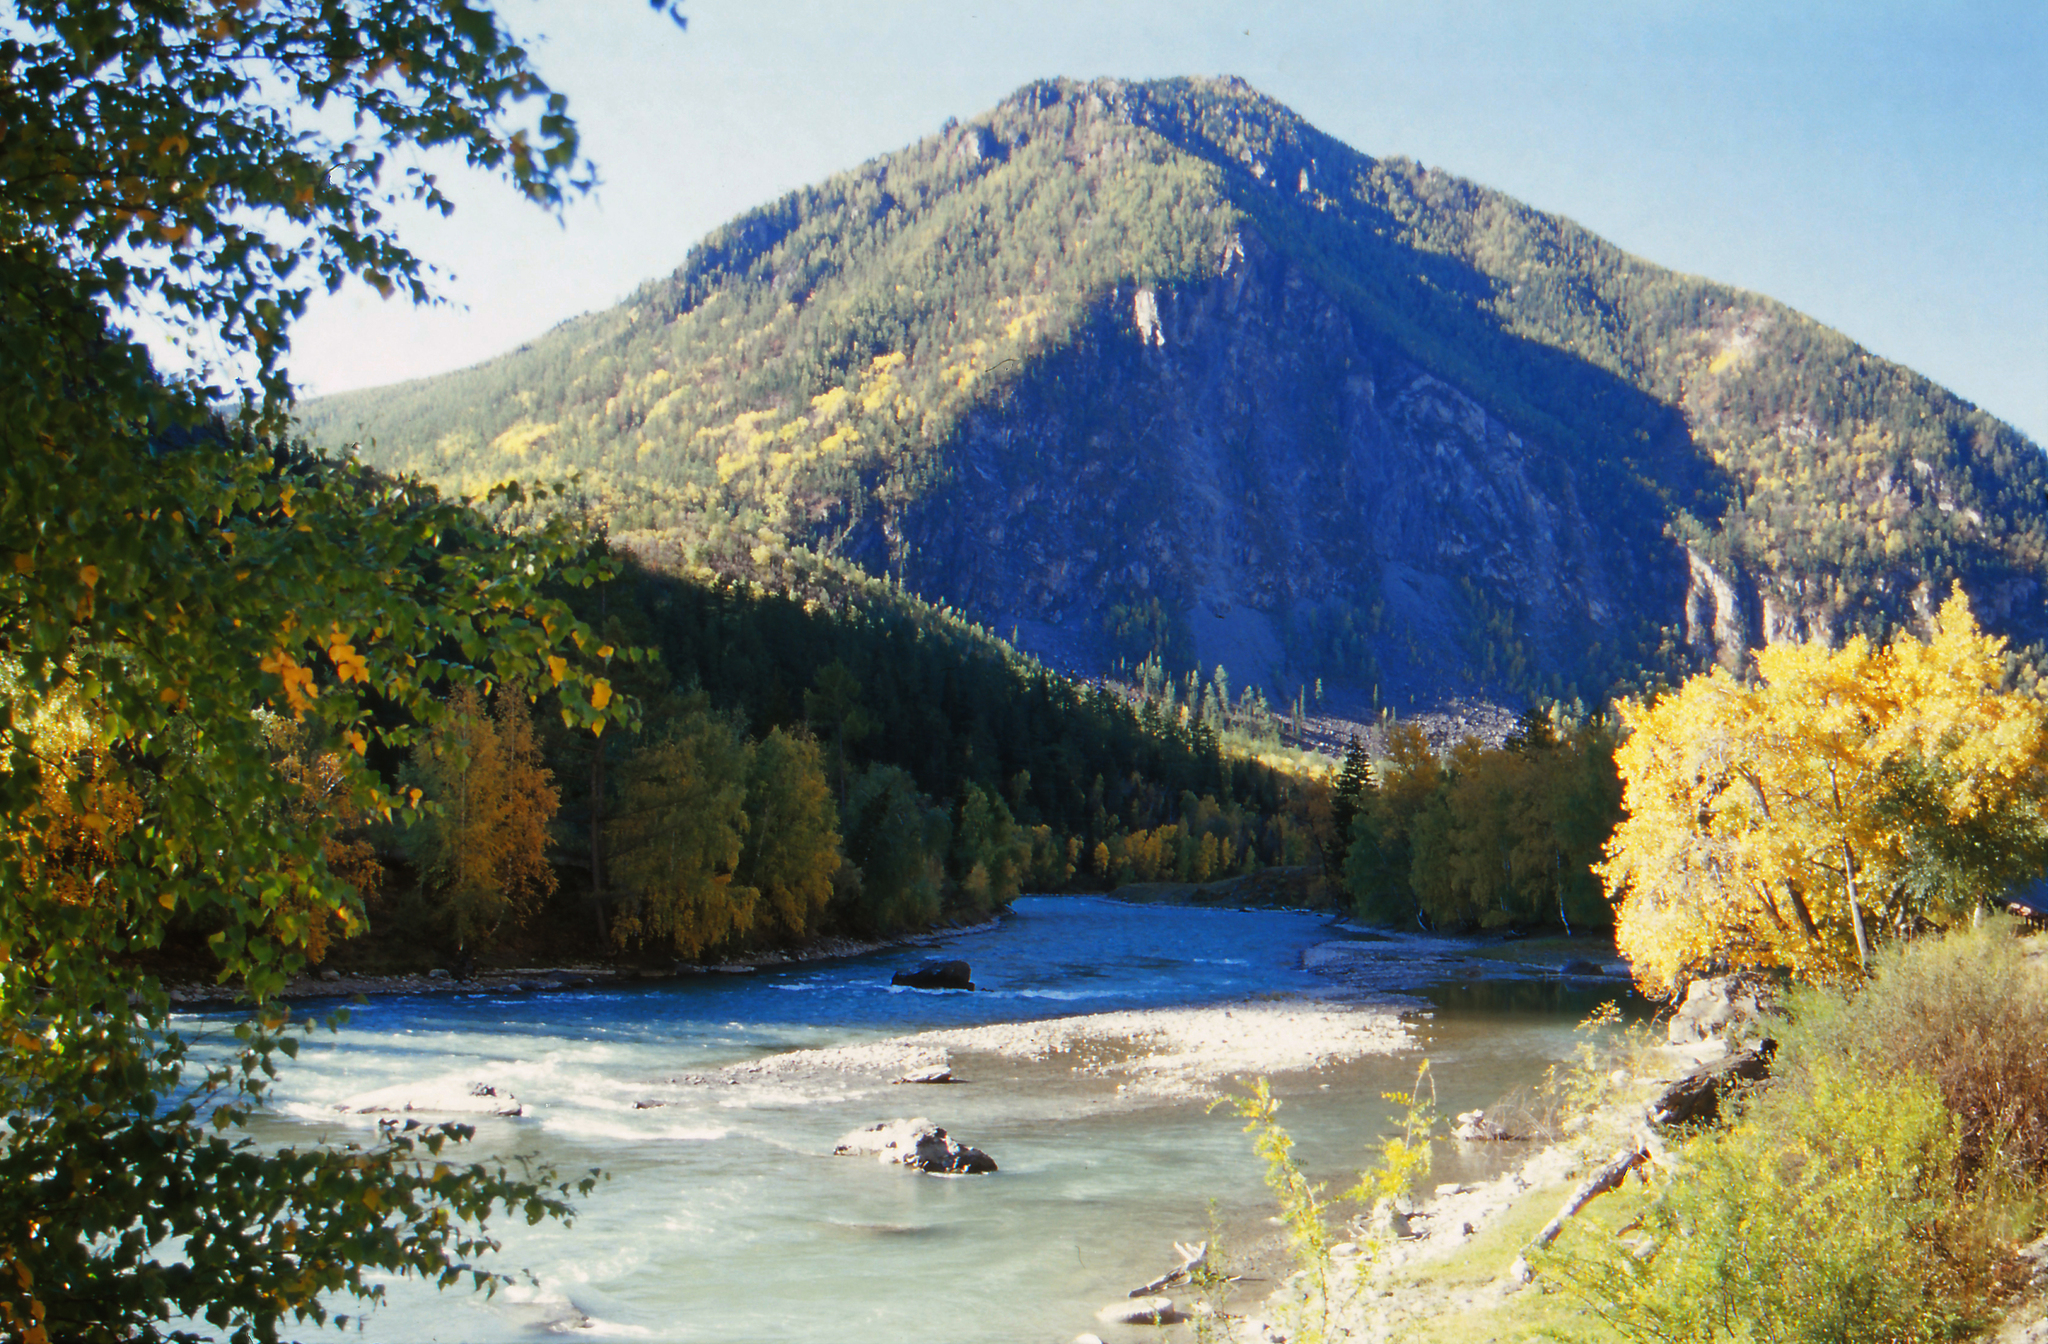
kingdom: Plantae
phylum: Tracheophyta
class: Magnoliopsida
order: Malpighiales
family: Salicaceae
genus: Populus
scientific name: Populus laurifolia
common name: Laurel-leaf poplar
